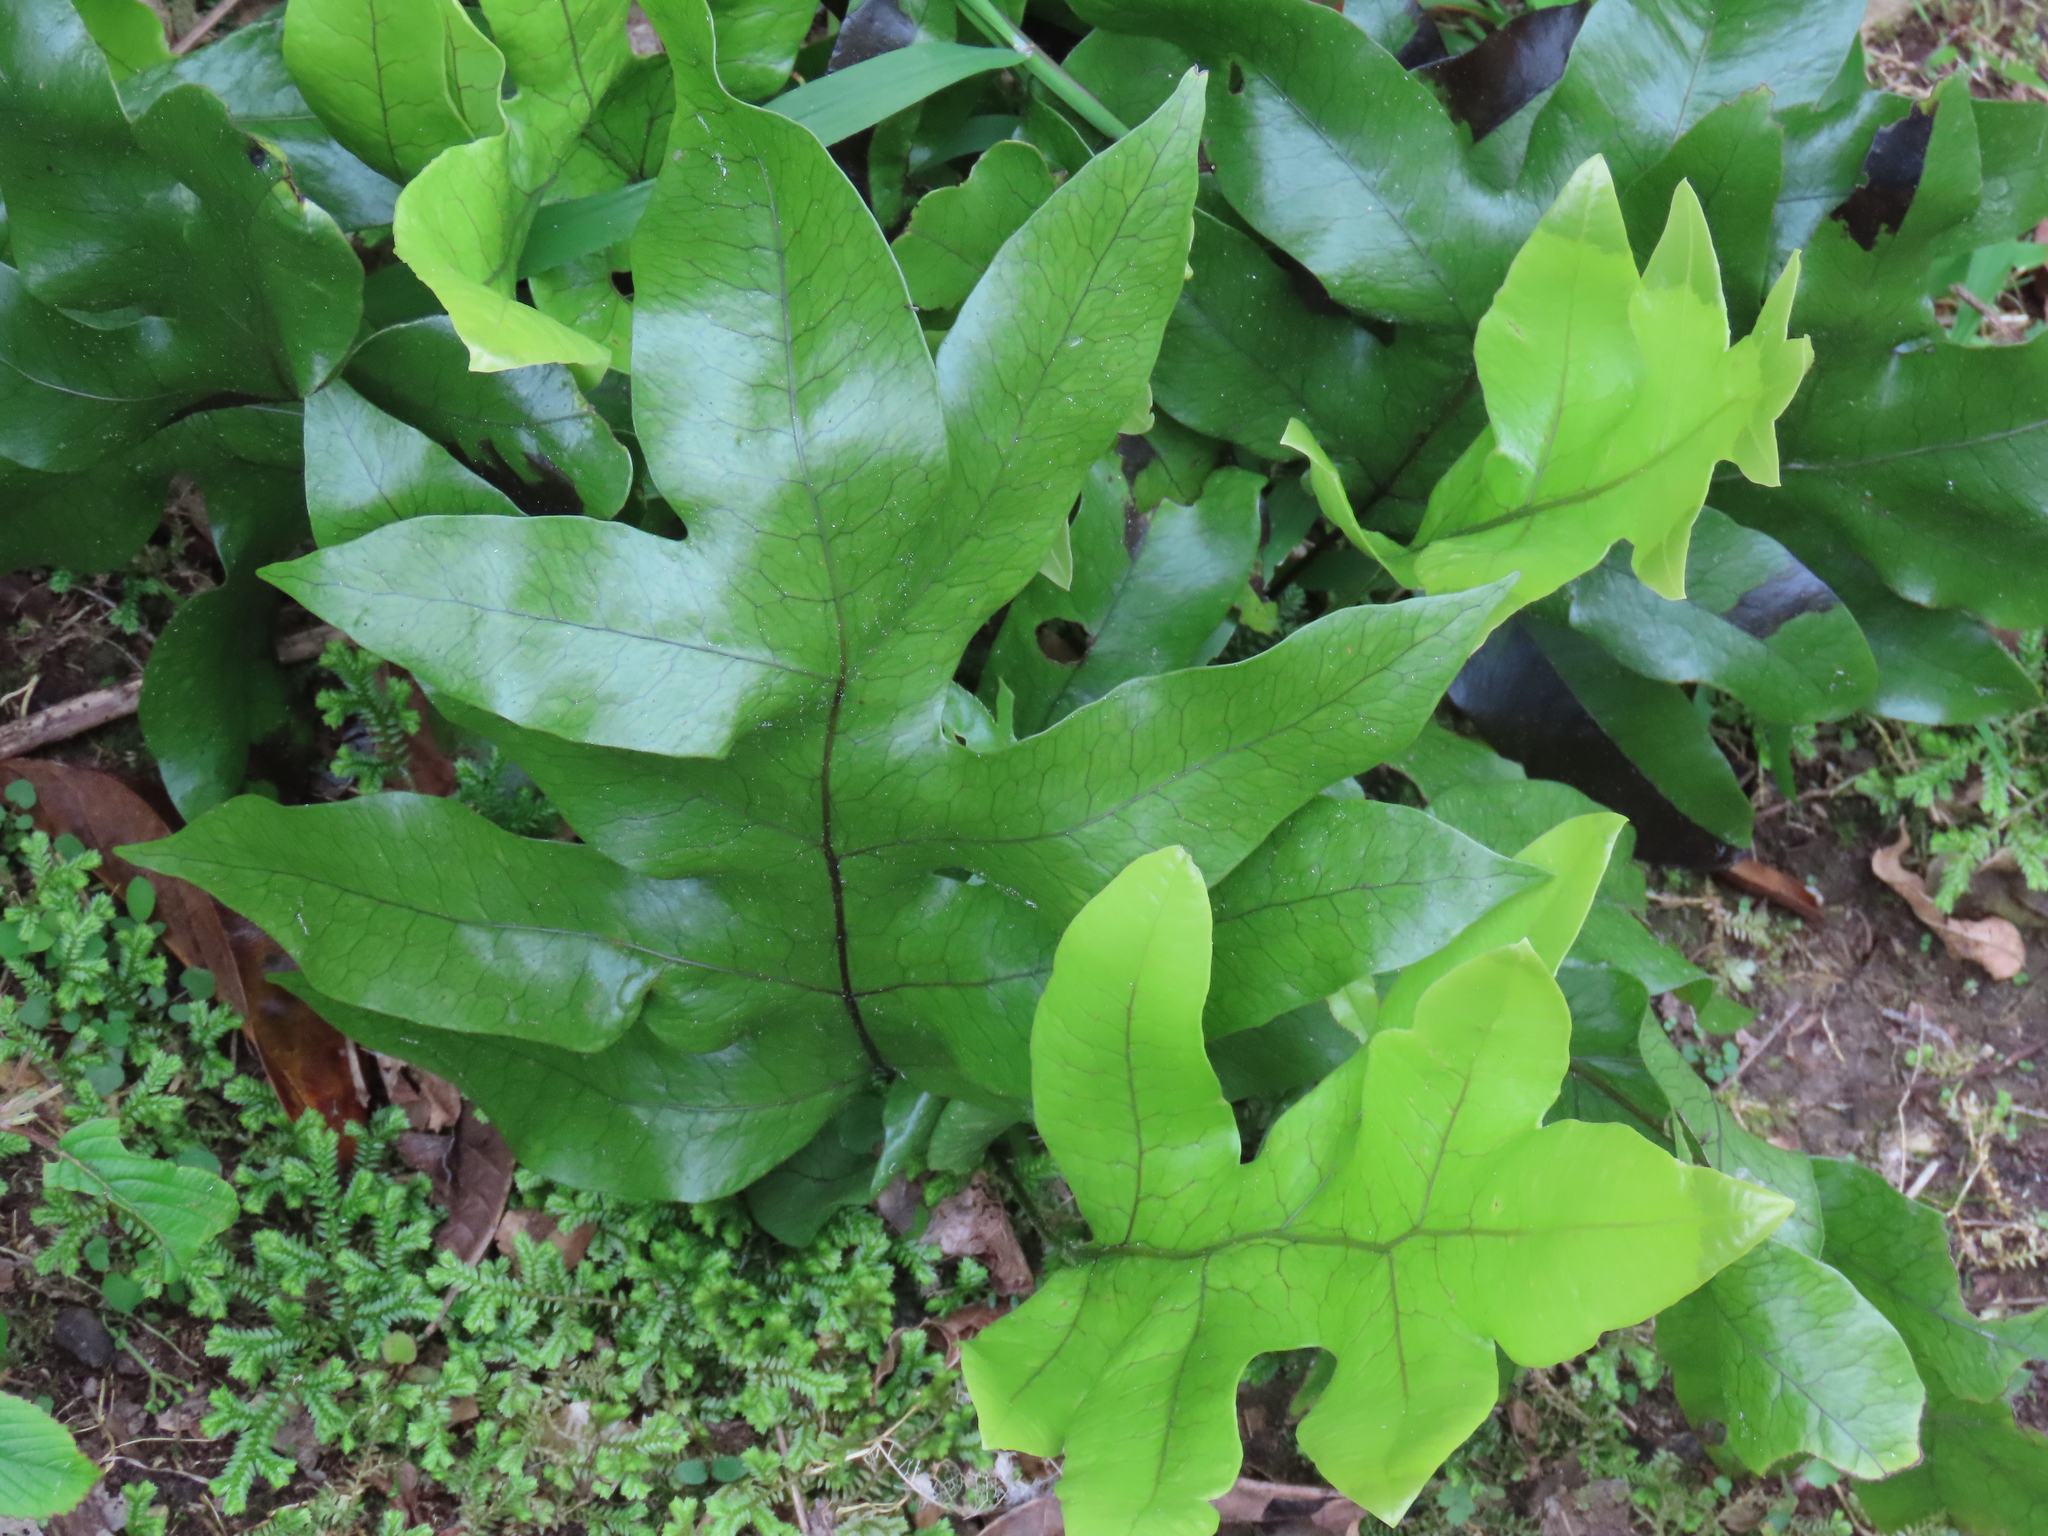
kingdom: Plantae
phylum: Tracheophyta
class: Polypodiopsida
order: Polypodiales
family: Polypodiaceae
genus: Lecanopteris
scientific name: Lecanopteris pustulata
